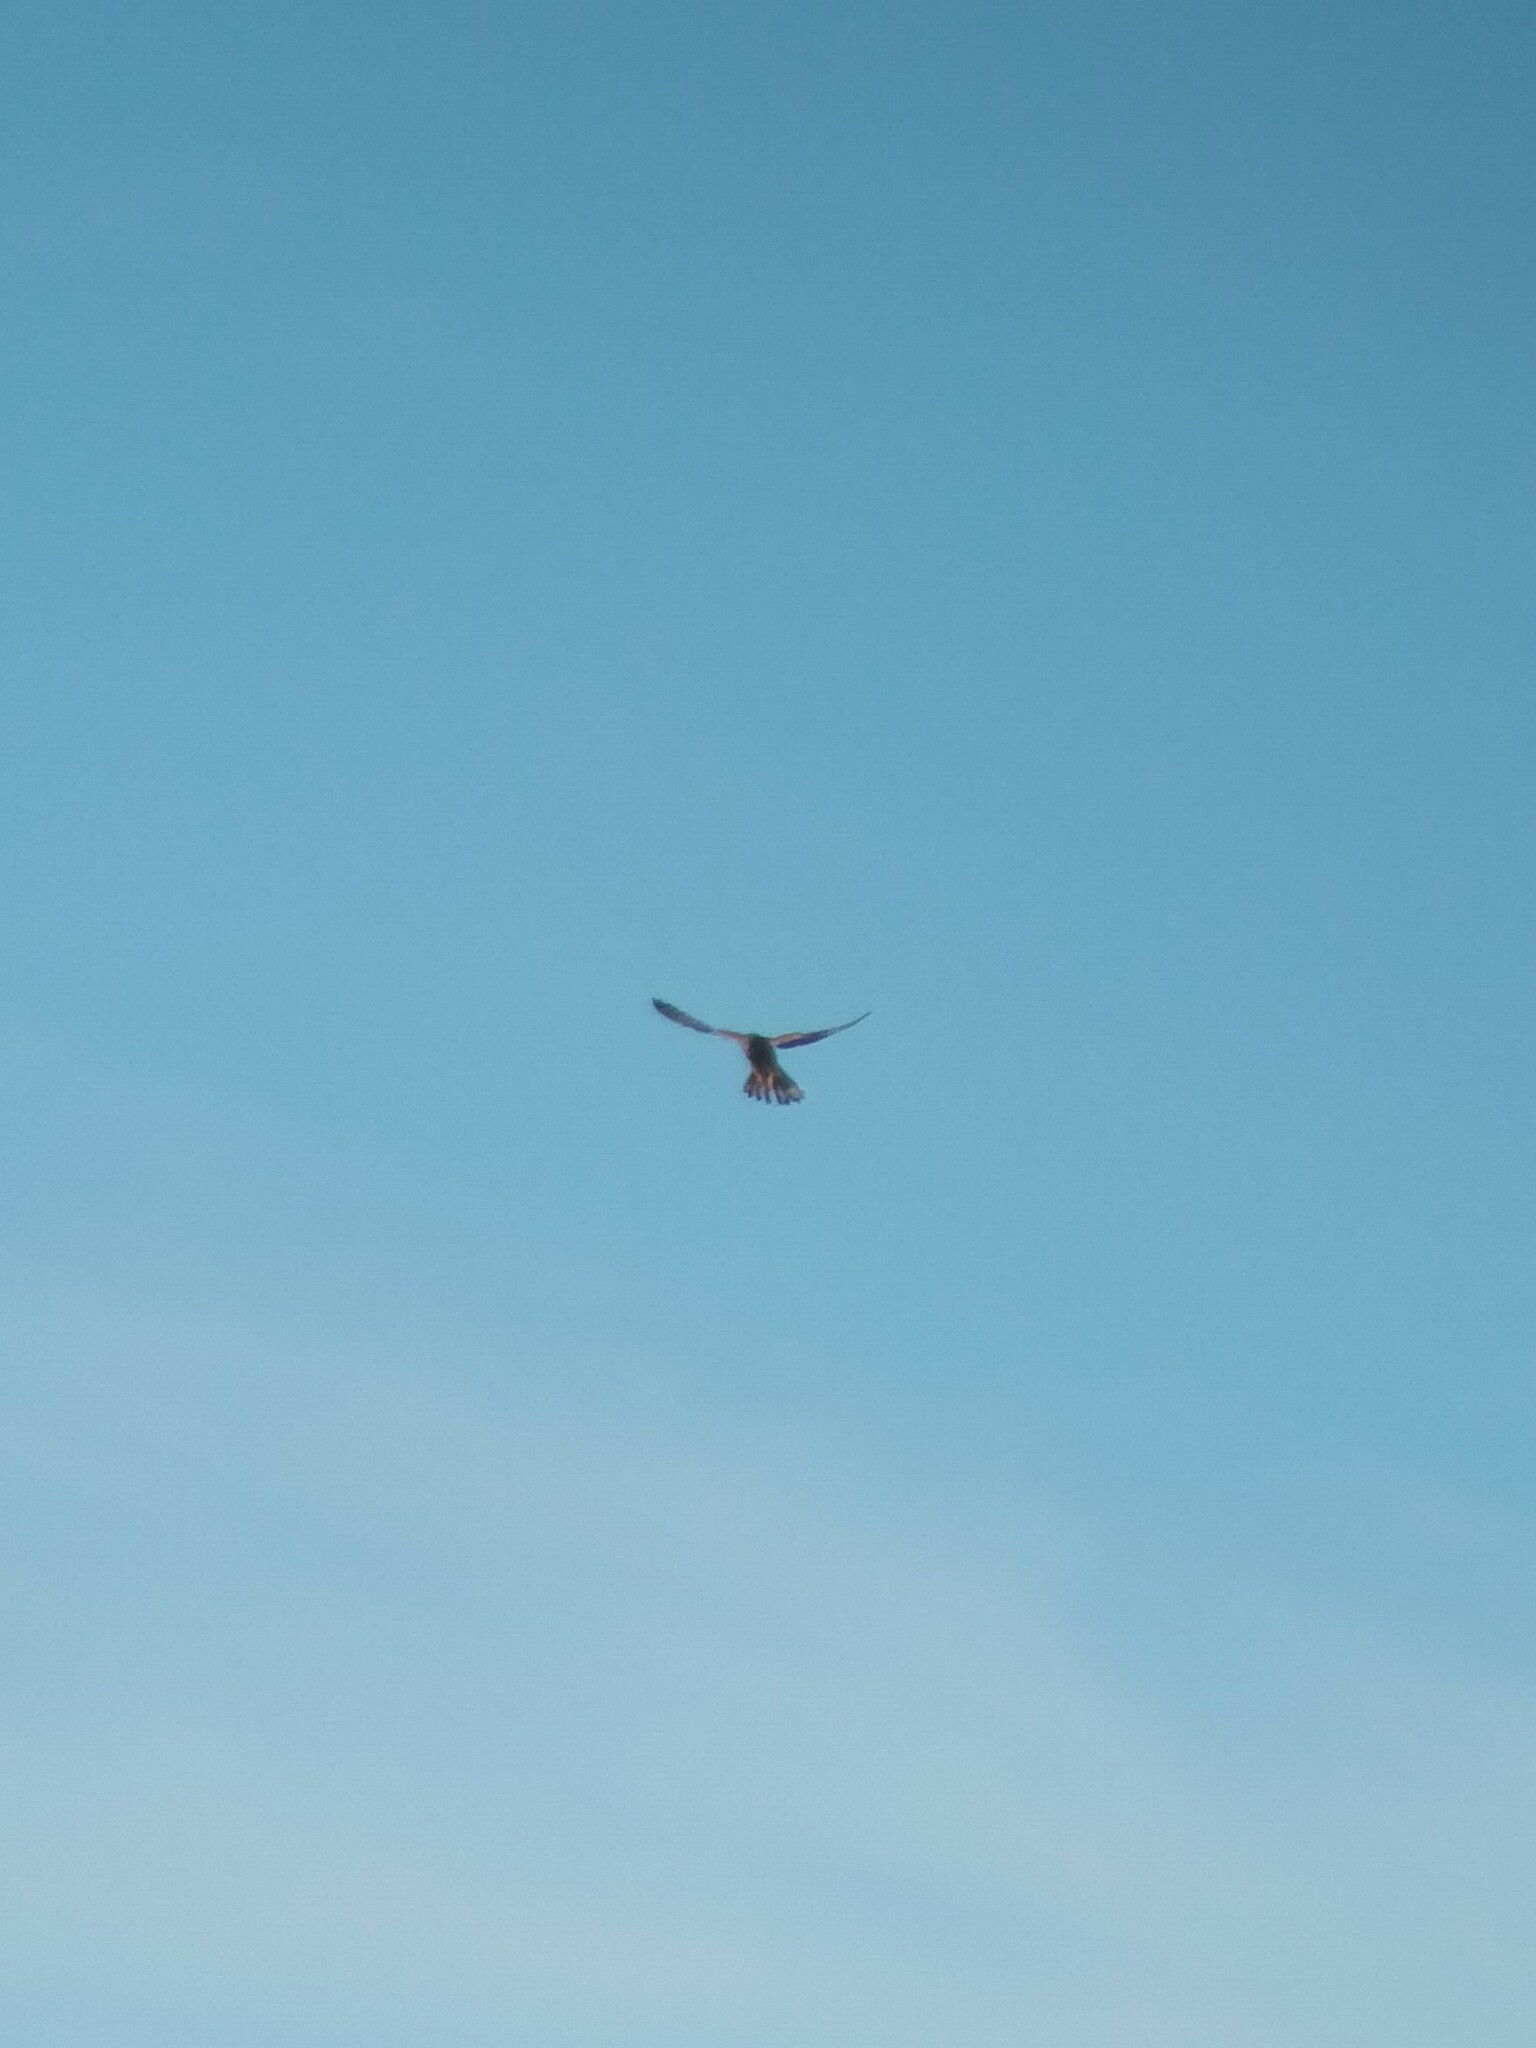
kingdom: Animalia
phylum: Chordata
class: Aves
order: Falconiformes
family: Falconidae
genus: Falco
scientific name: Falco tinnunculus
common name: Common kestrel
